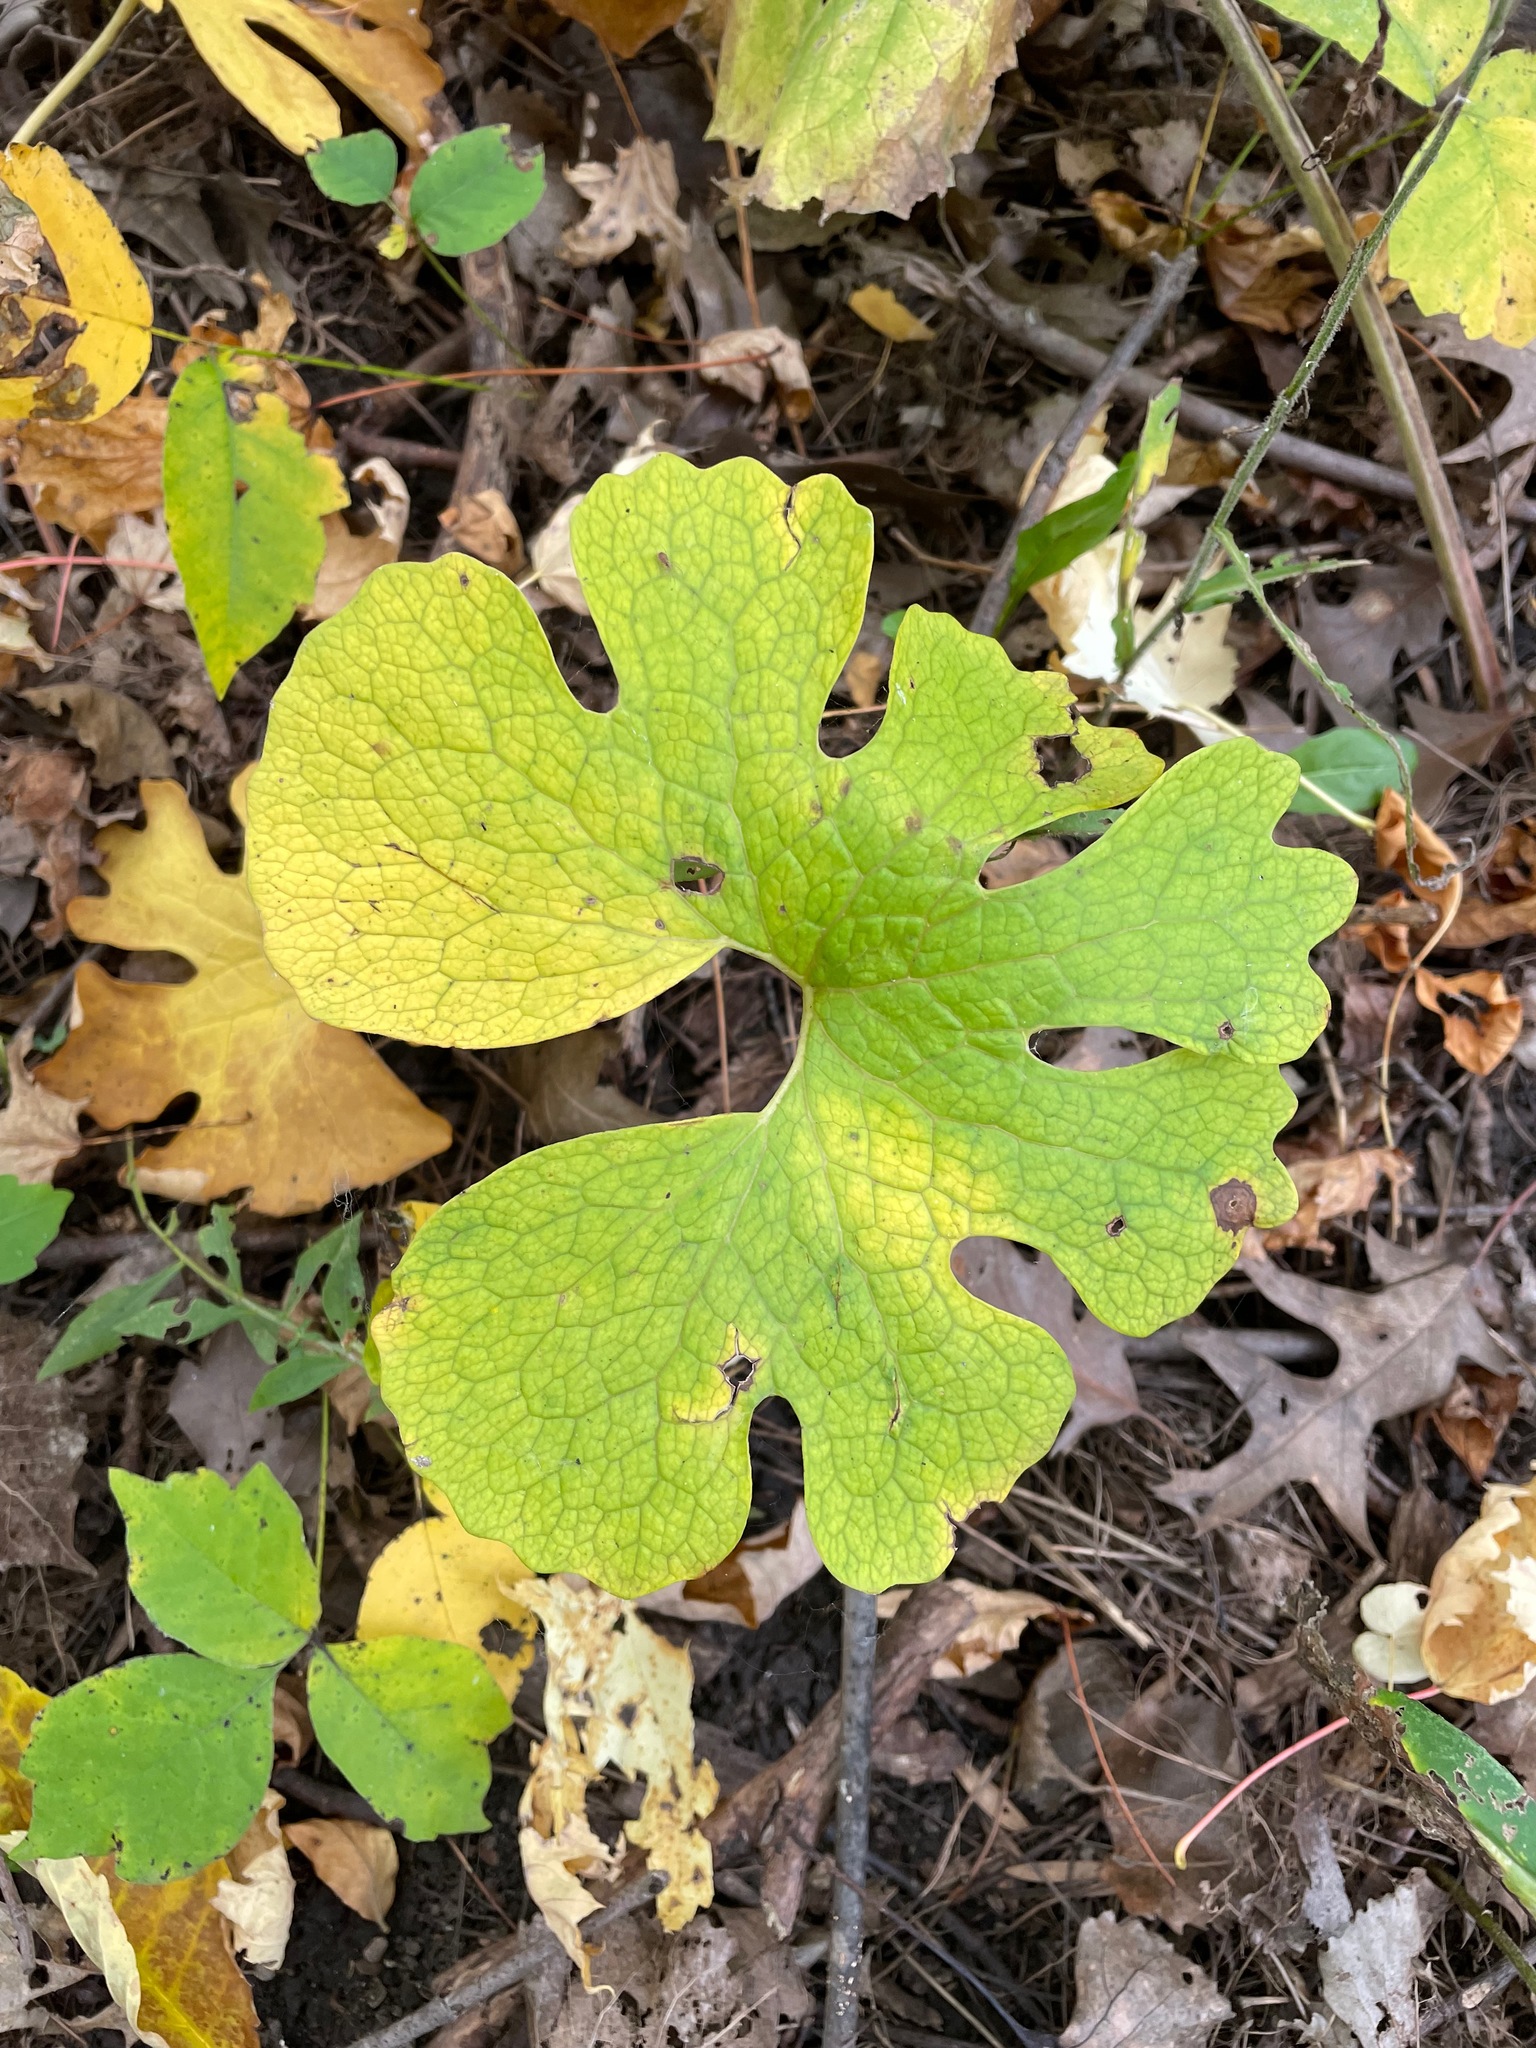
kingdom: Plantae
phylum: Tracheophyta
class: Magnoliopsida
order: Ranunculales
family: Papaveraceae
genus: Sanguinaria
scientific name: Sanguinaria canadensis
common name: Bloodroot
